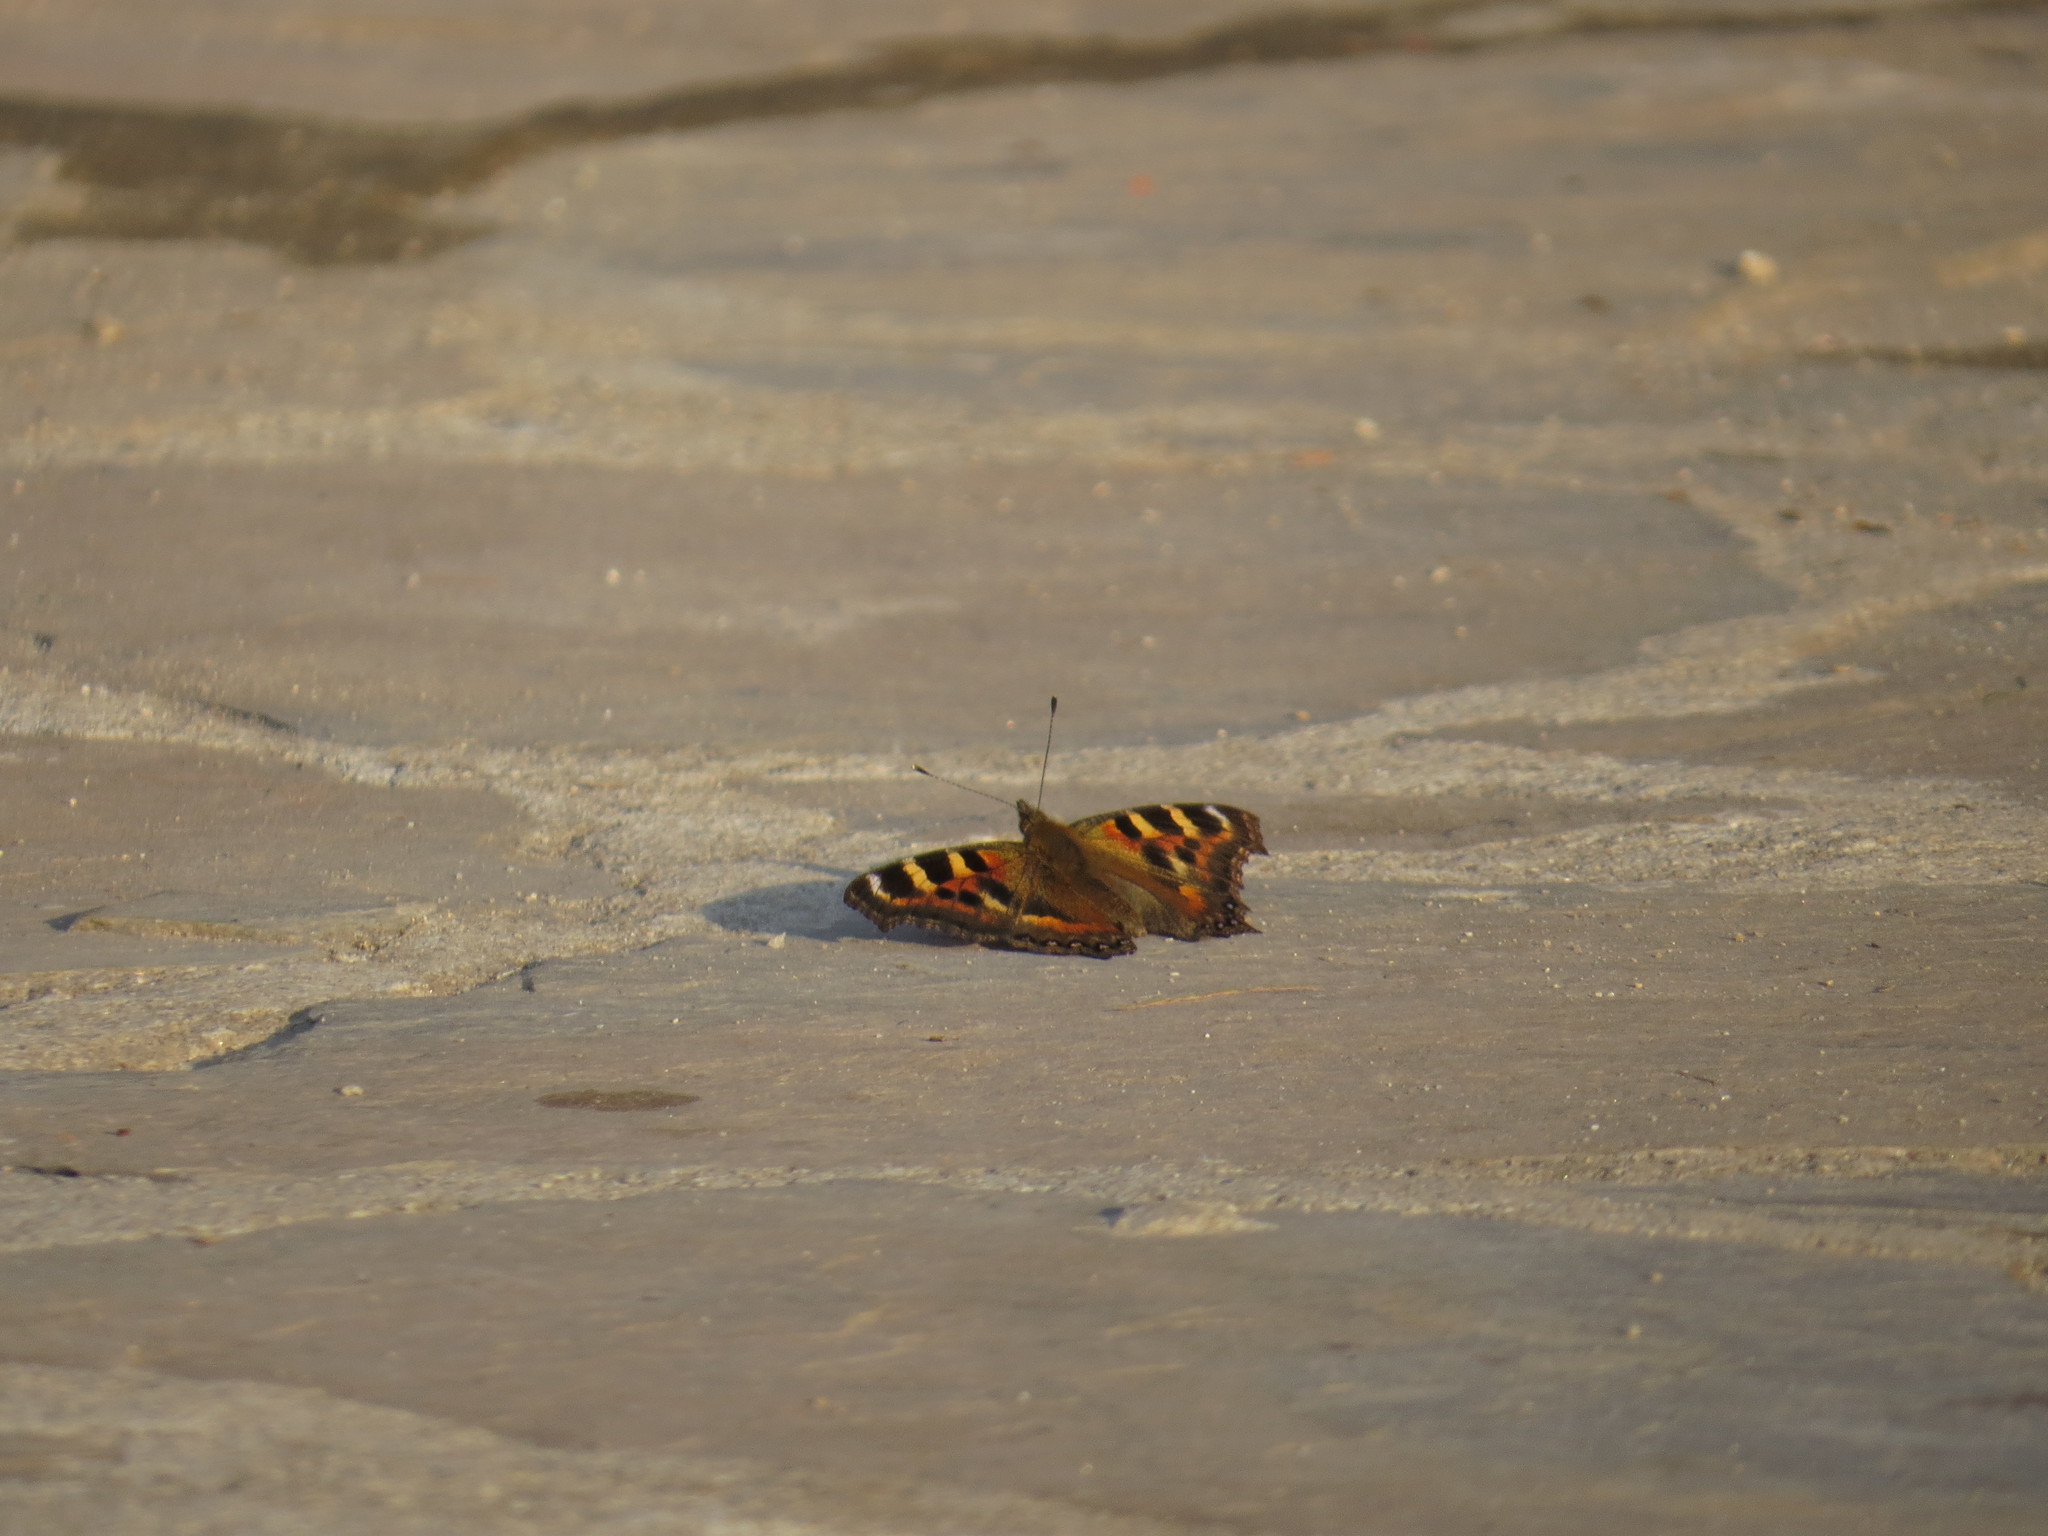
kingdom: Animalia
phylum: Arthropoda
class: Insecta
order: Lepidoptera
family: Nymphalidae
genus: Aglais
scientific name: Aglais caschmirensis
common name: Indian tortoiseshell
